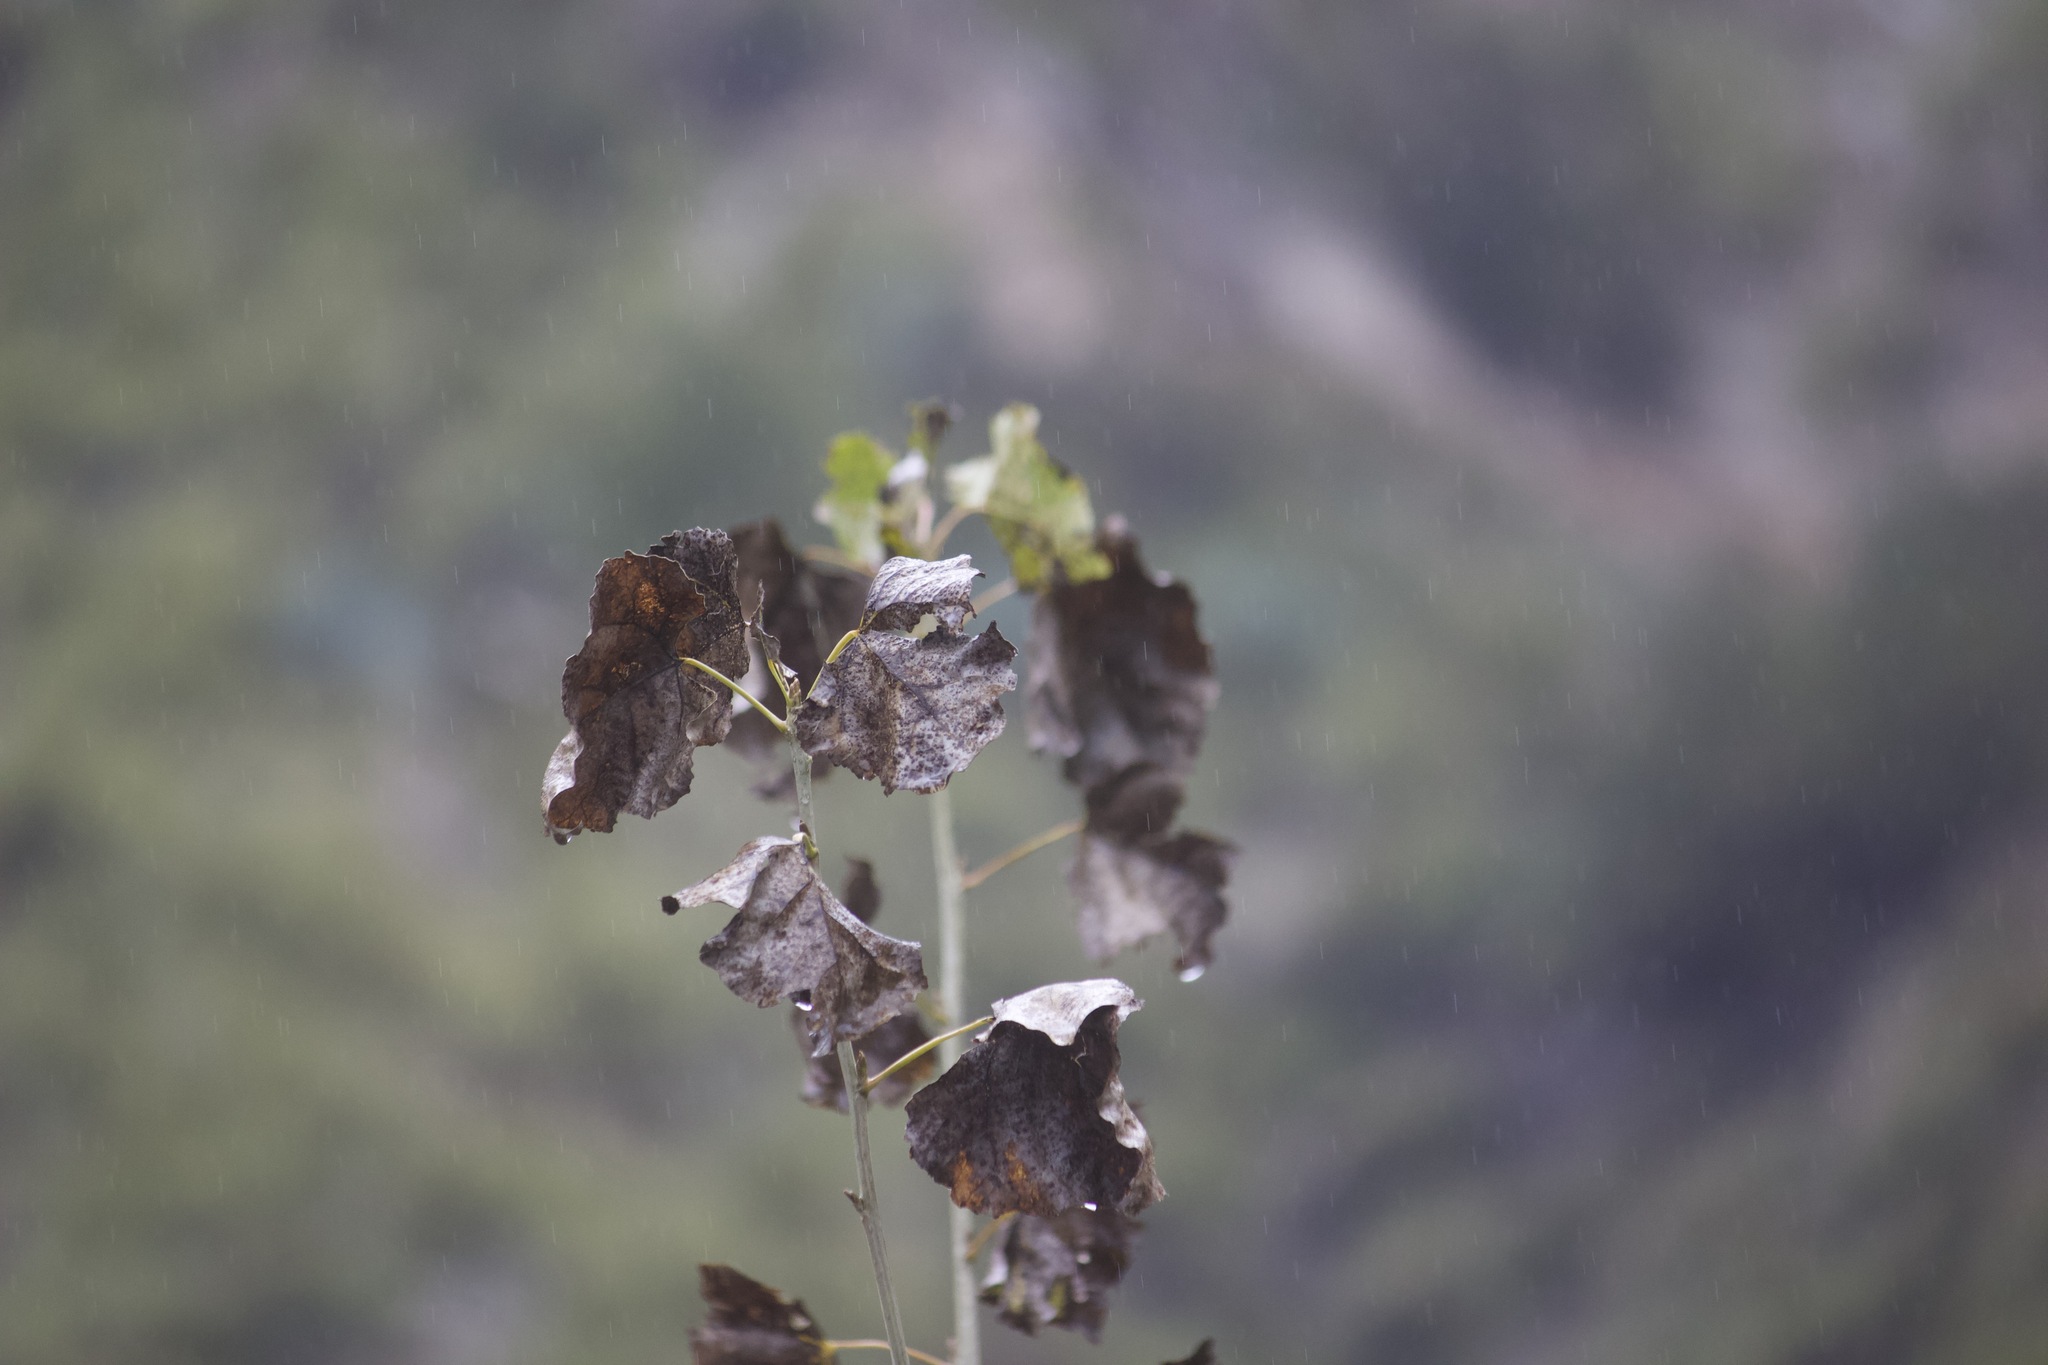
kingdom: Plantae
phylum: Tracheophyta
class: Magnoliopsida
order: Malpighiales
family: Salicaceae
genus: Populus
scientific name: Populus fremontii
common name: Fremont's cottonwood
